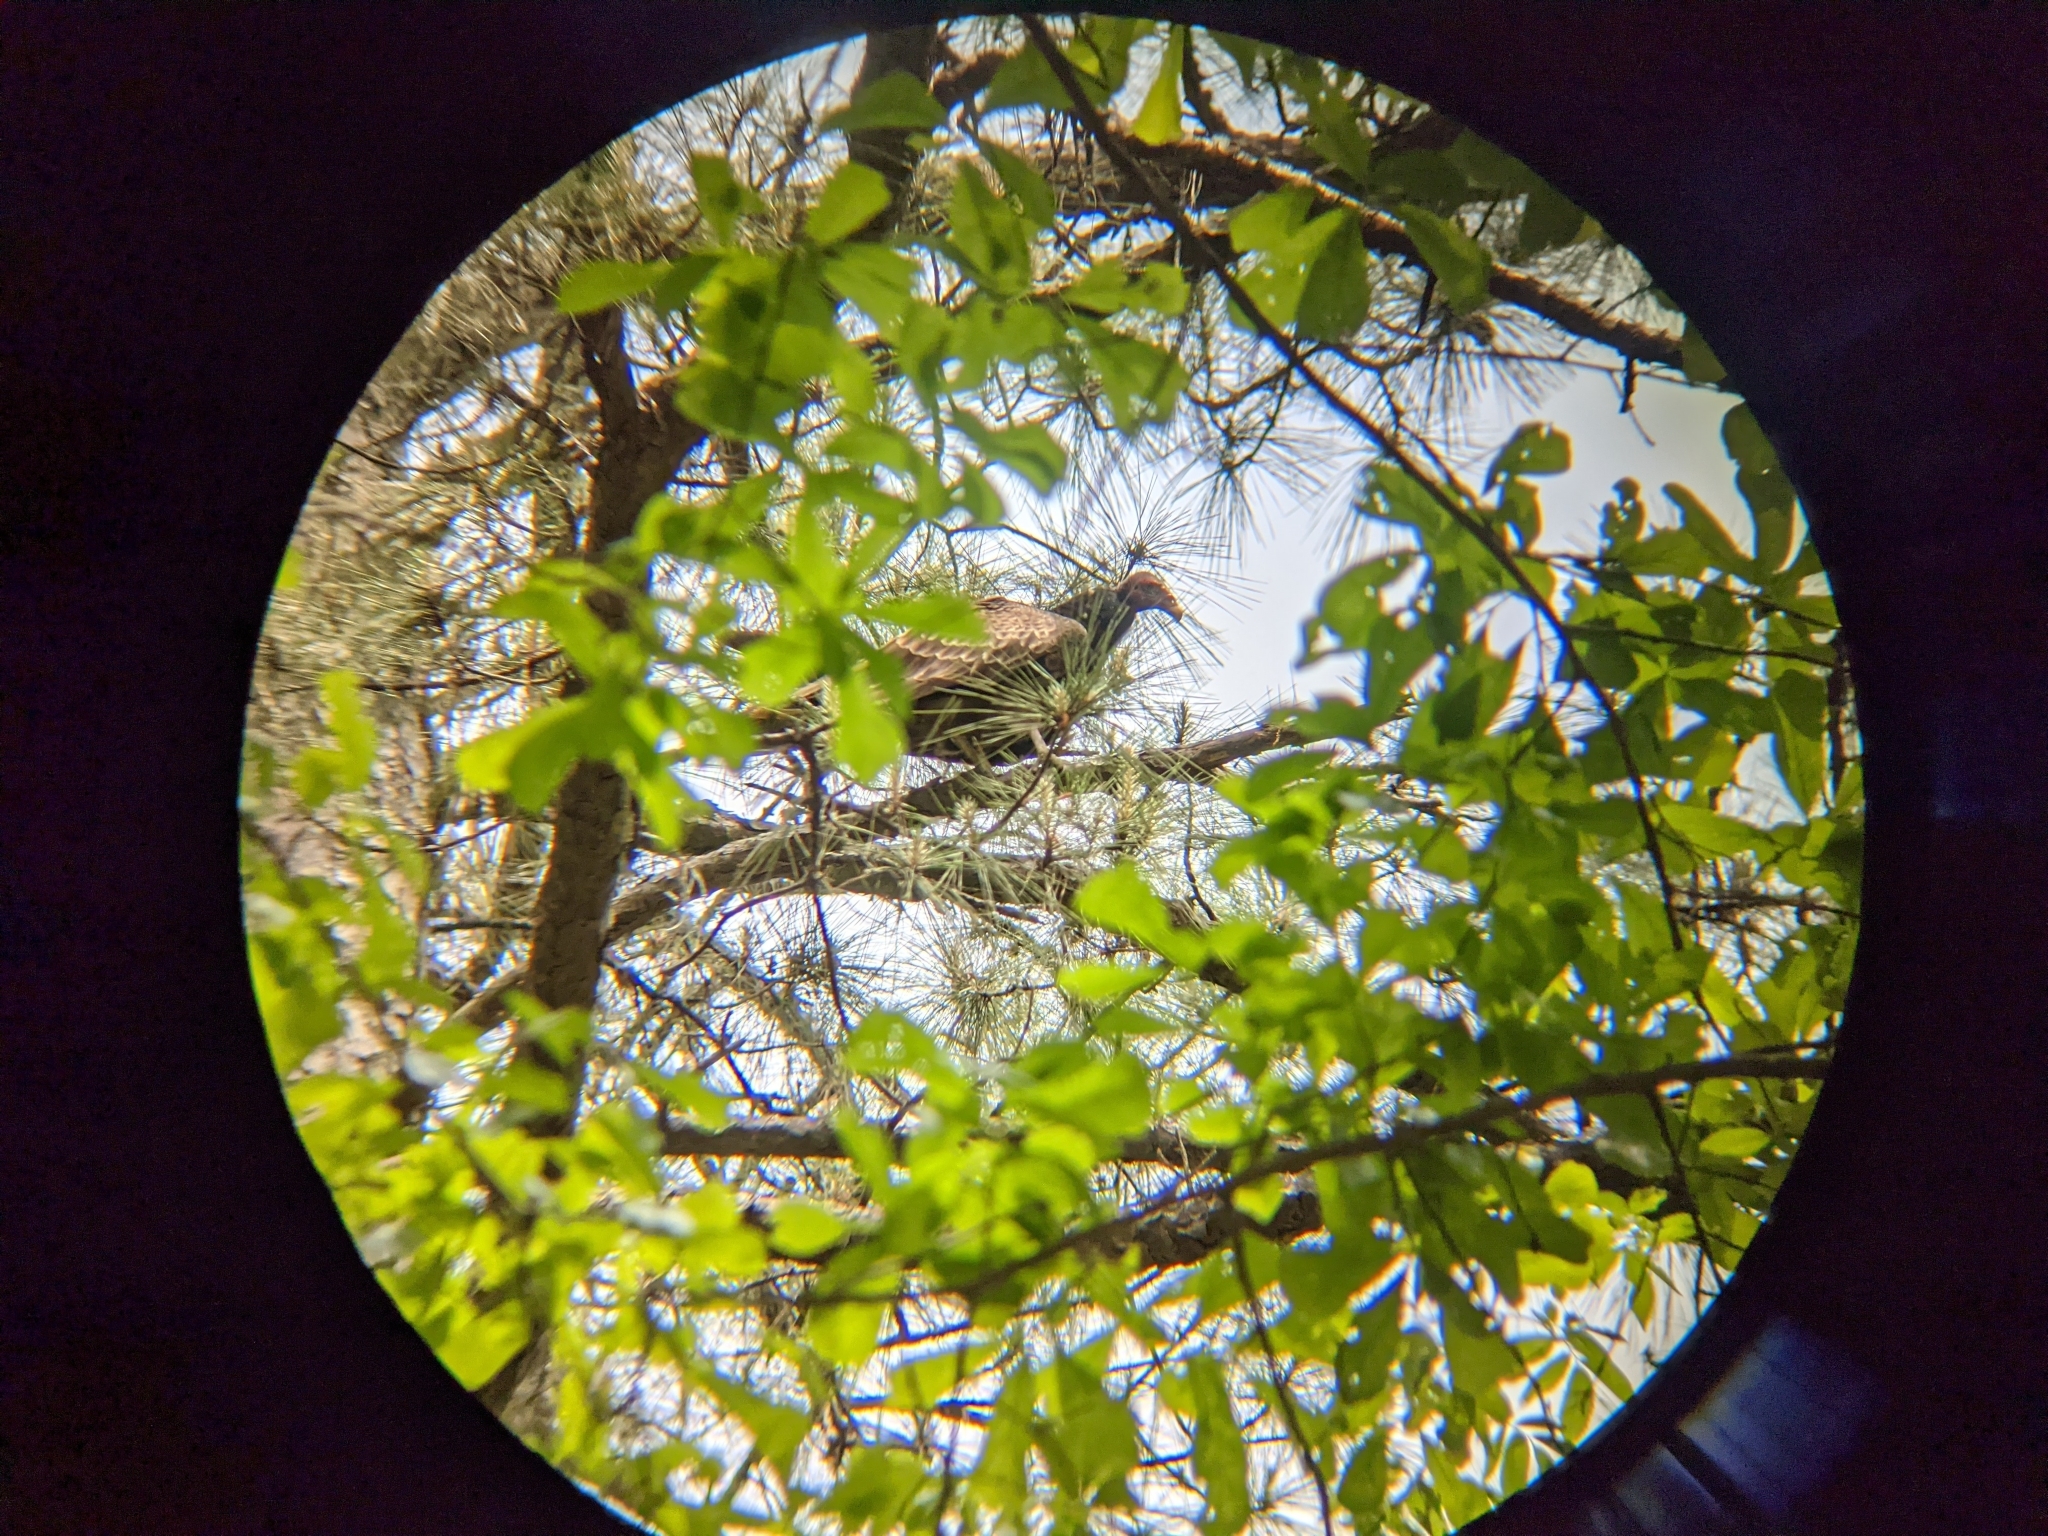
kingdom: Animalia
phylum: Chordata
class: Aves
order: Accipitriformes
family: Cathartidae
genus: Cathartes
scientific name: Cathartes aura
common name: Turkey vulture
